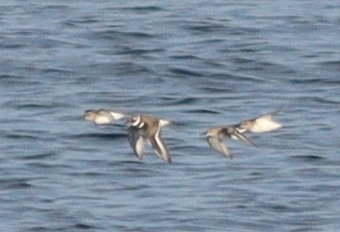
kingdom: Animalia
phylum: Chordata
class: Aves
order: Charadriiformes
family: Charadriidae
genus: Charadrius
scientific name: Charadrius hiaticula
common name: Common ringed plover
